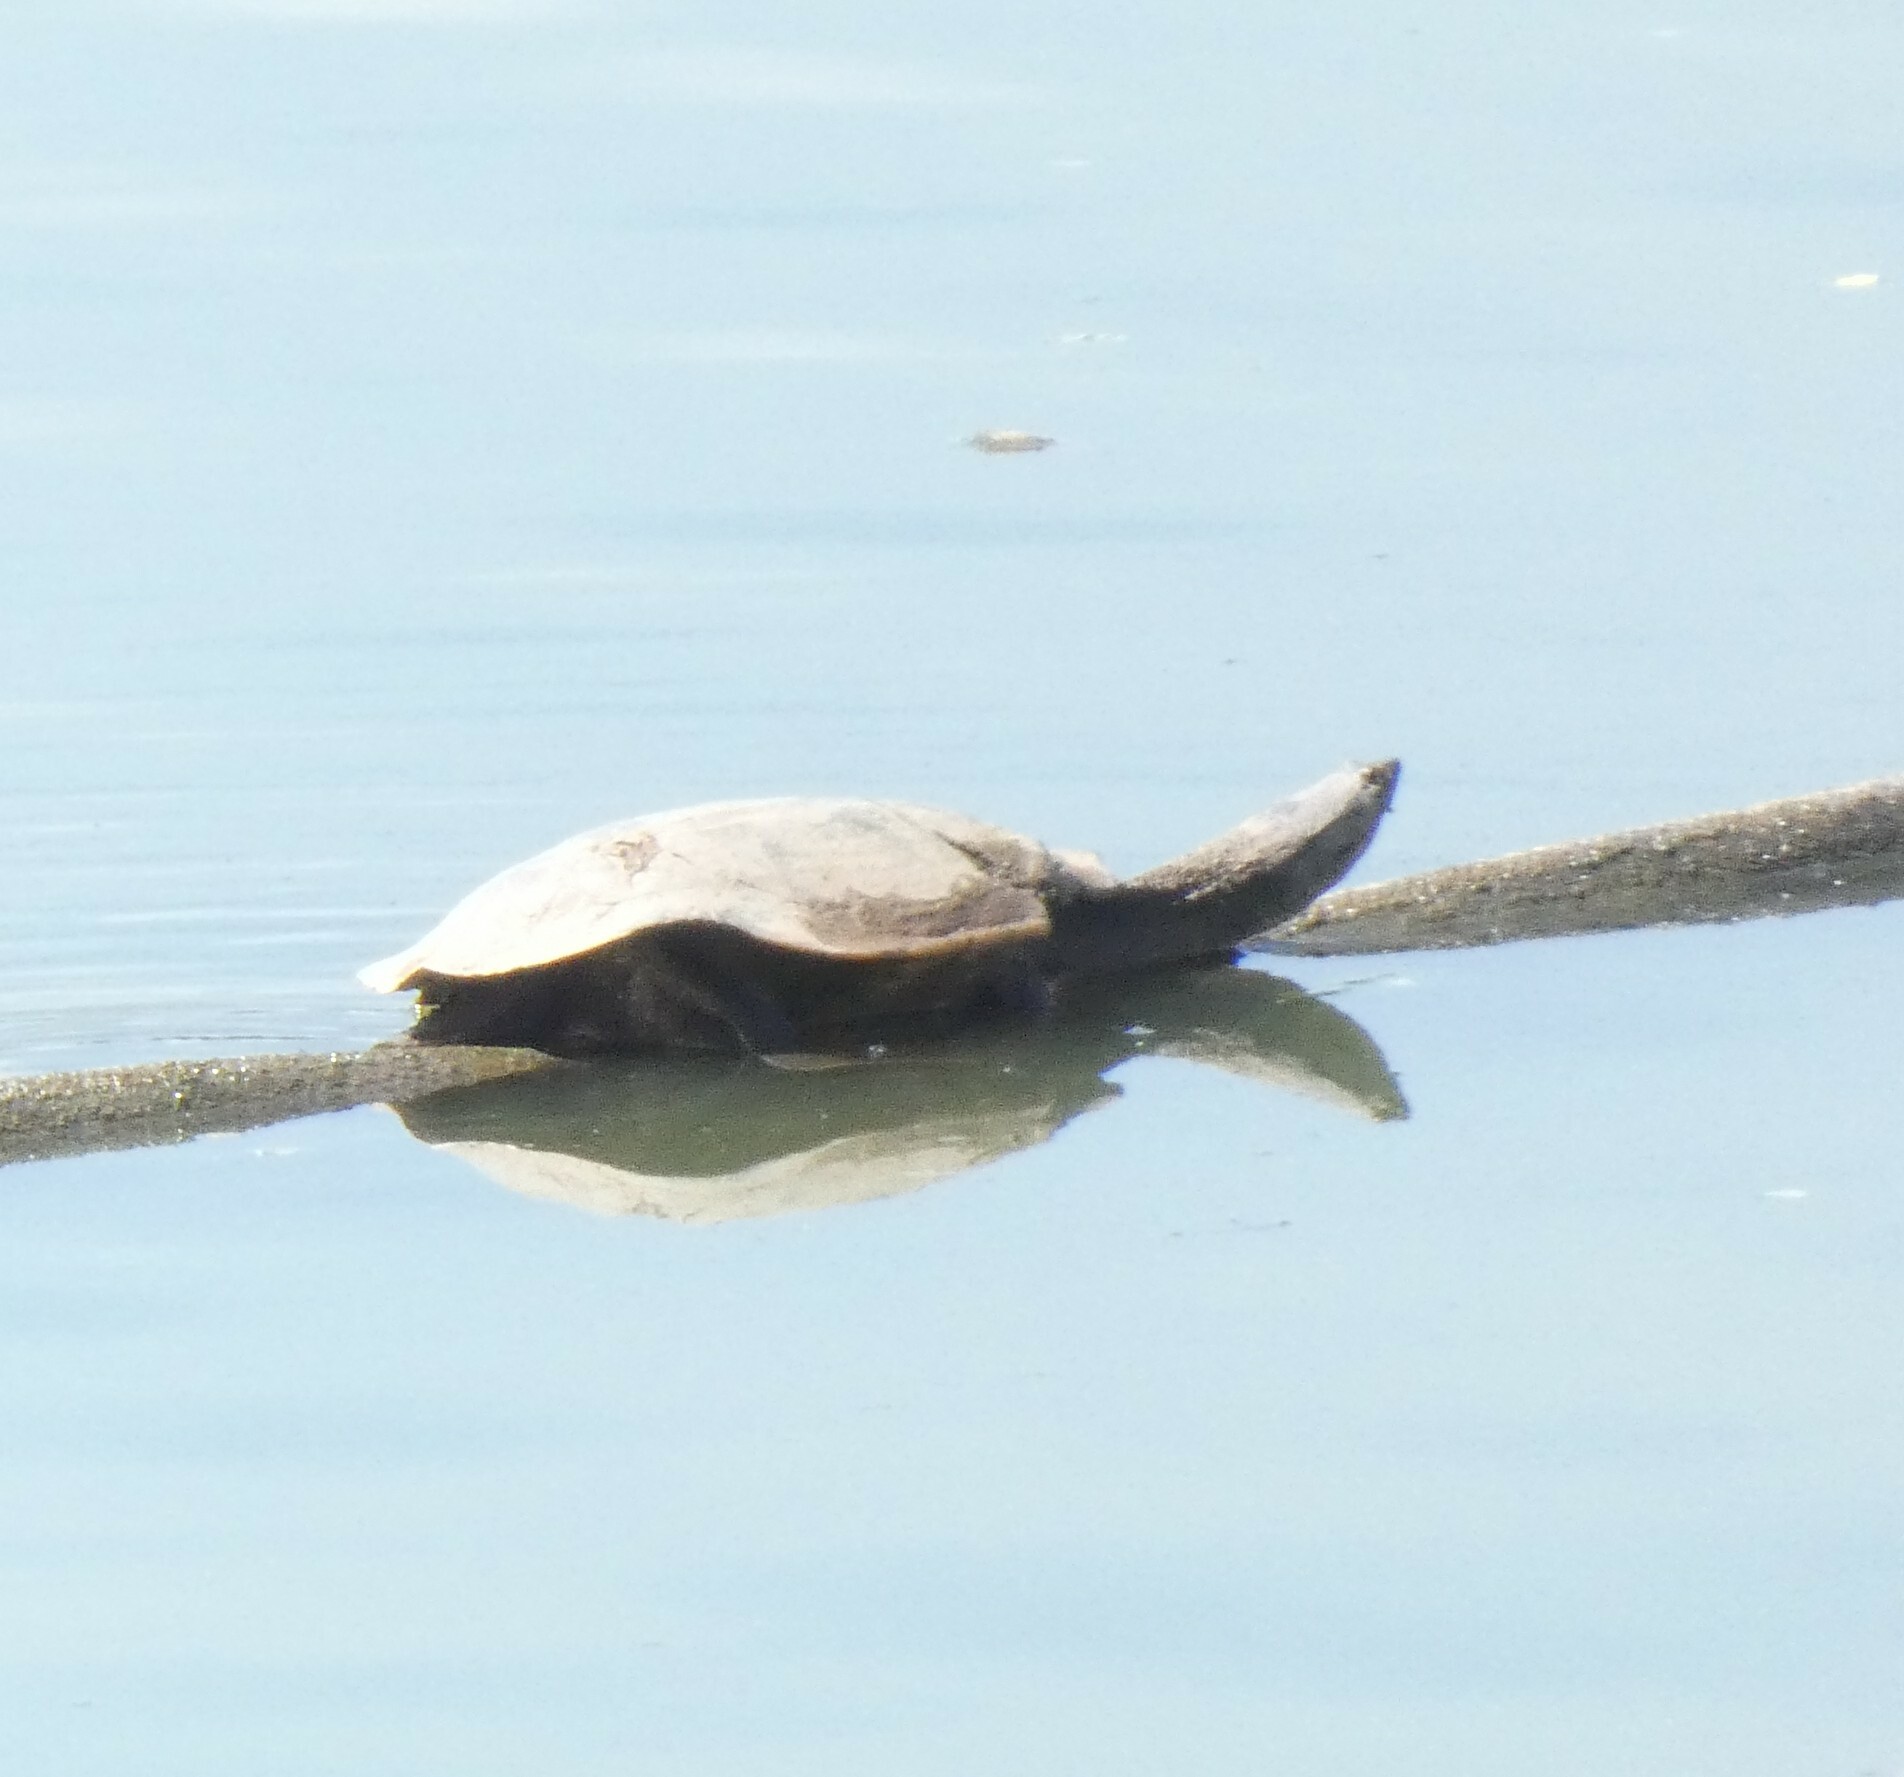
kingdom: Animalia
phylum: Chordata
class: Testudines
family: Chelidae
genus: Phrynops
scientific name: Phrynops geoffroanus
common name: Side-necked turtle of geoffroy
